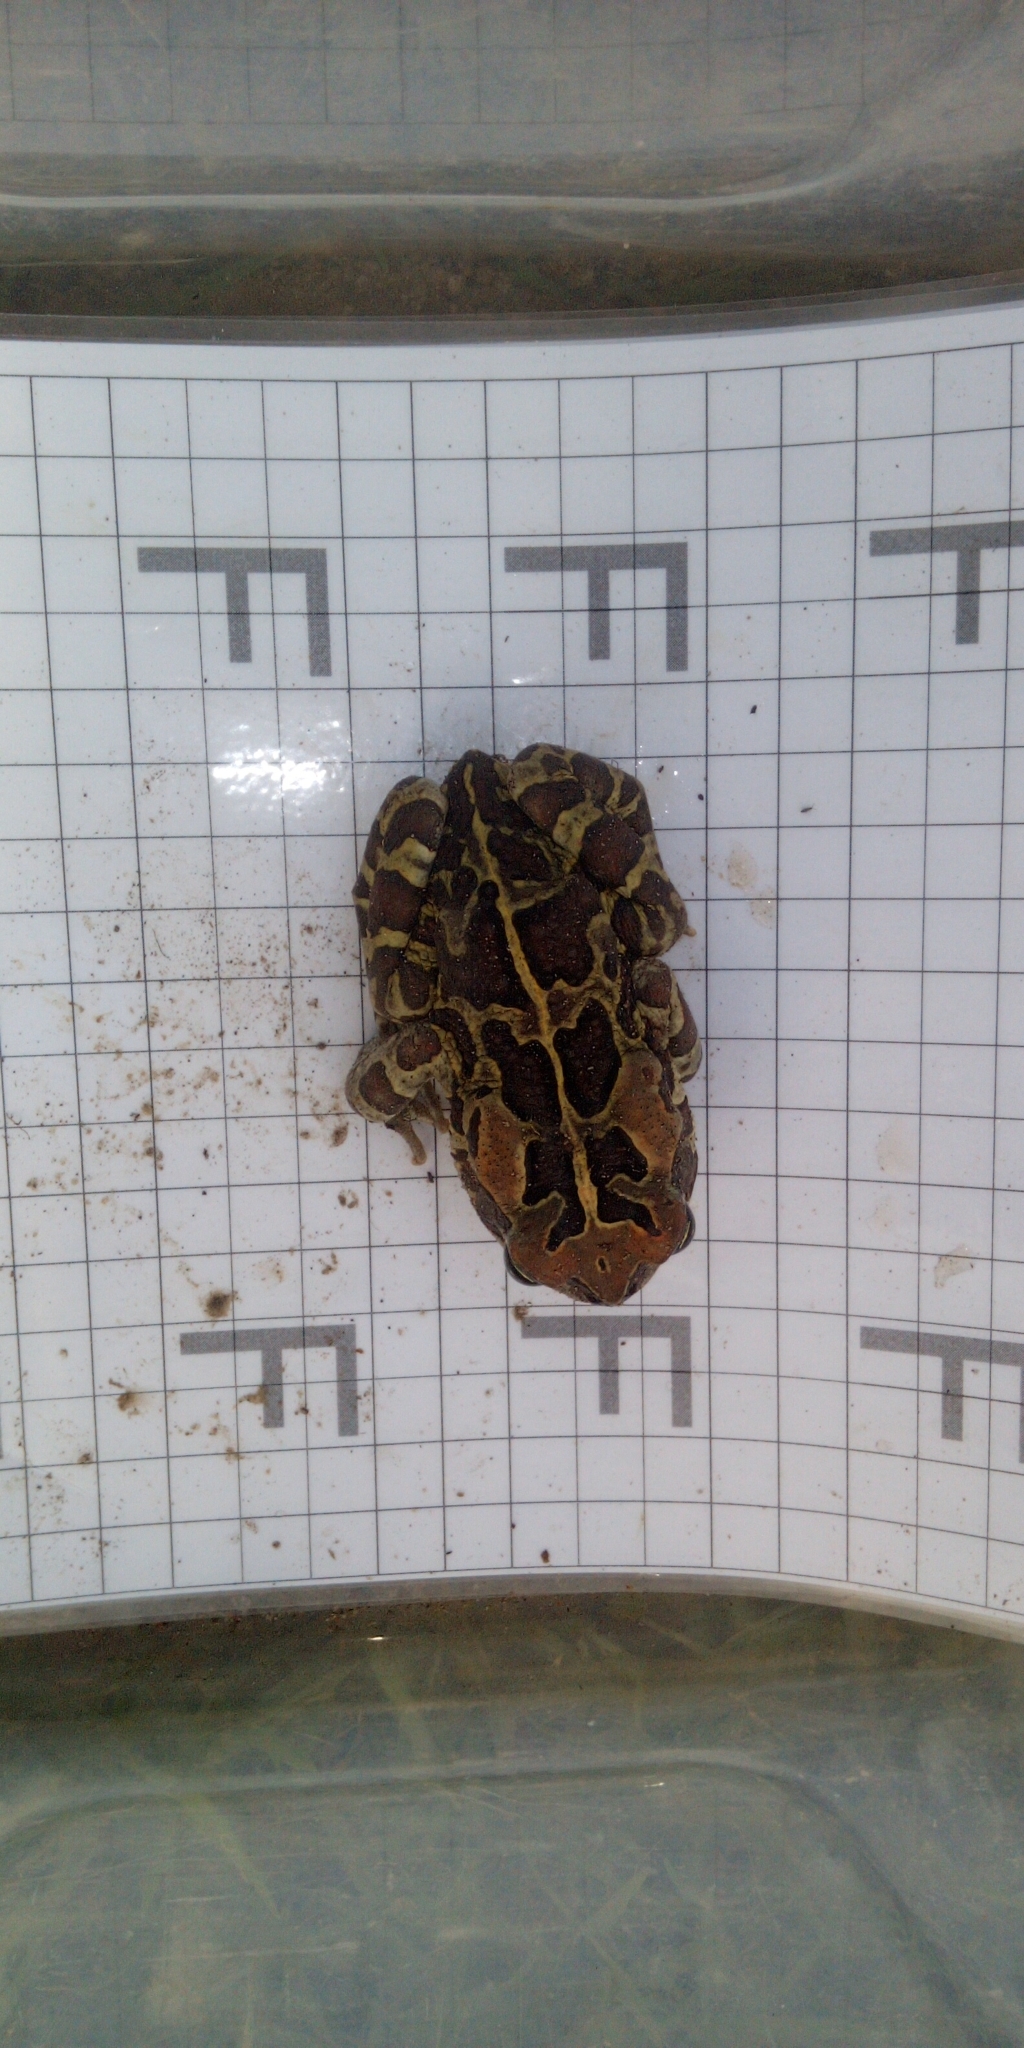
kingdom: Animalia
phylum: Chordata
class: Amphibia
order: Anura
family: Bufonidae
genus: Sclerophrys
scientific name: Sclerophrys pantherina
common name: Panther toad
